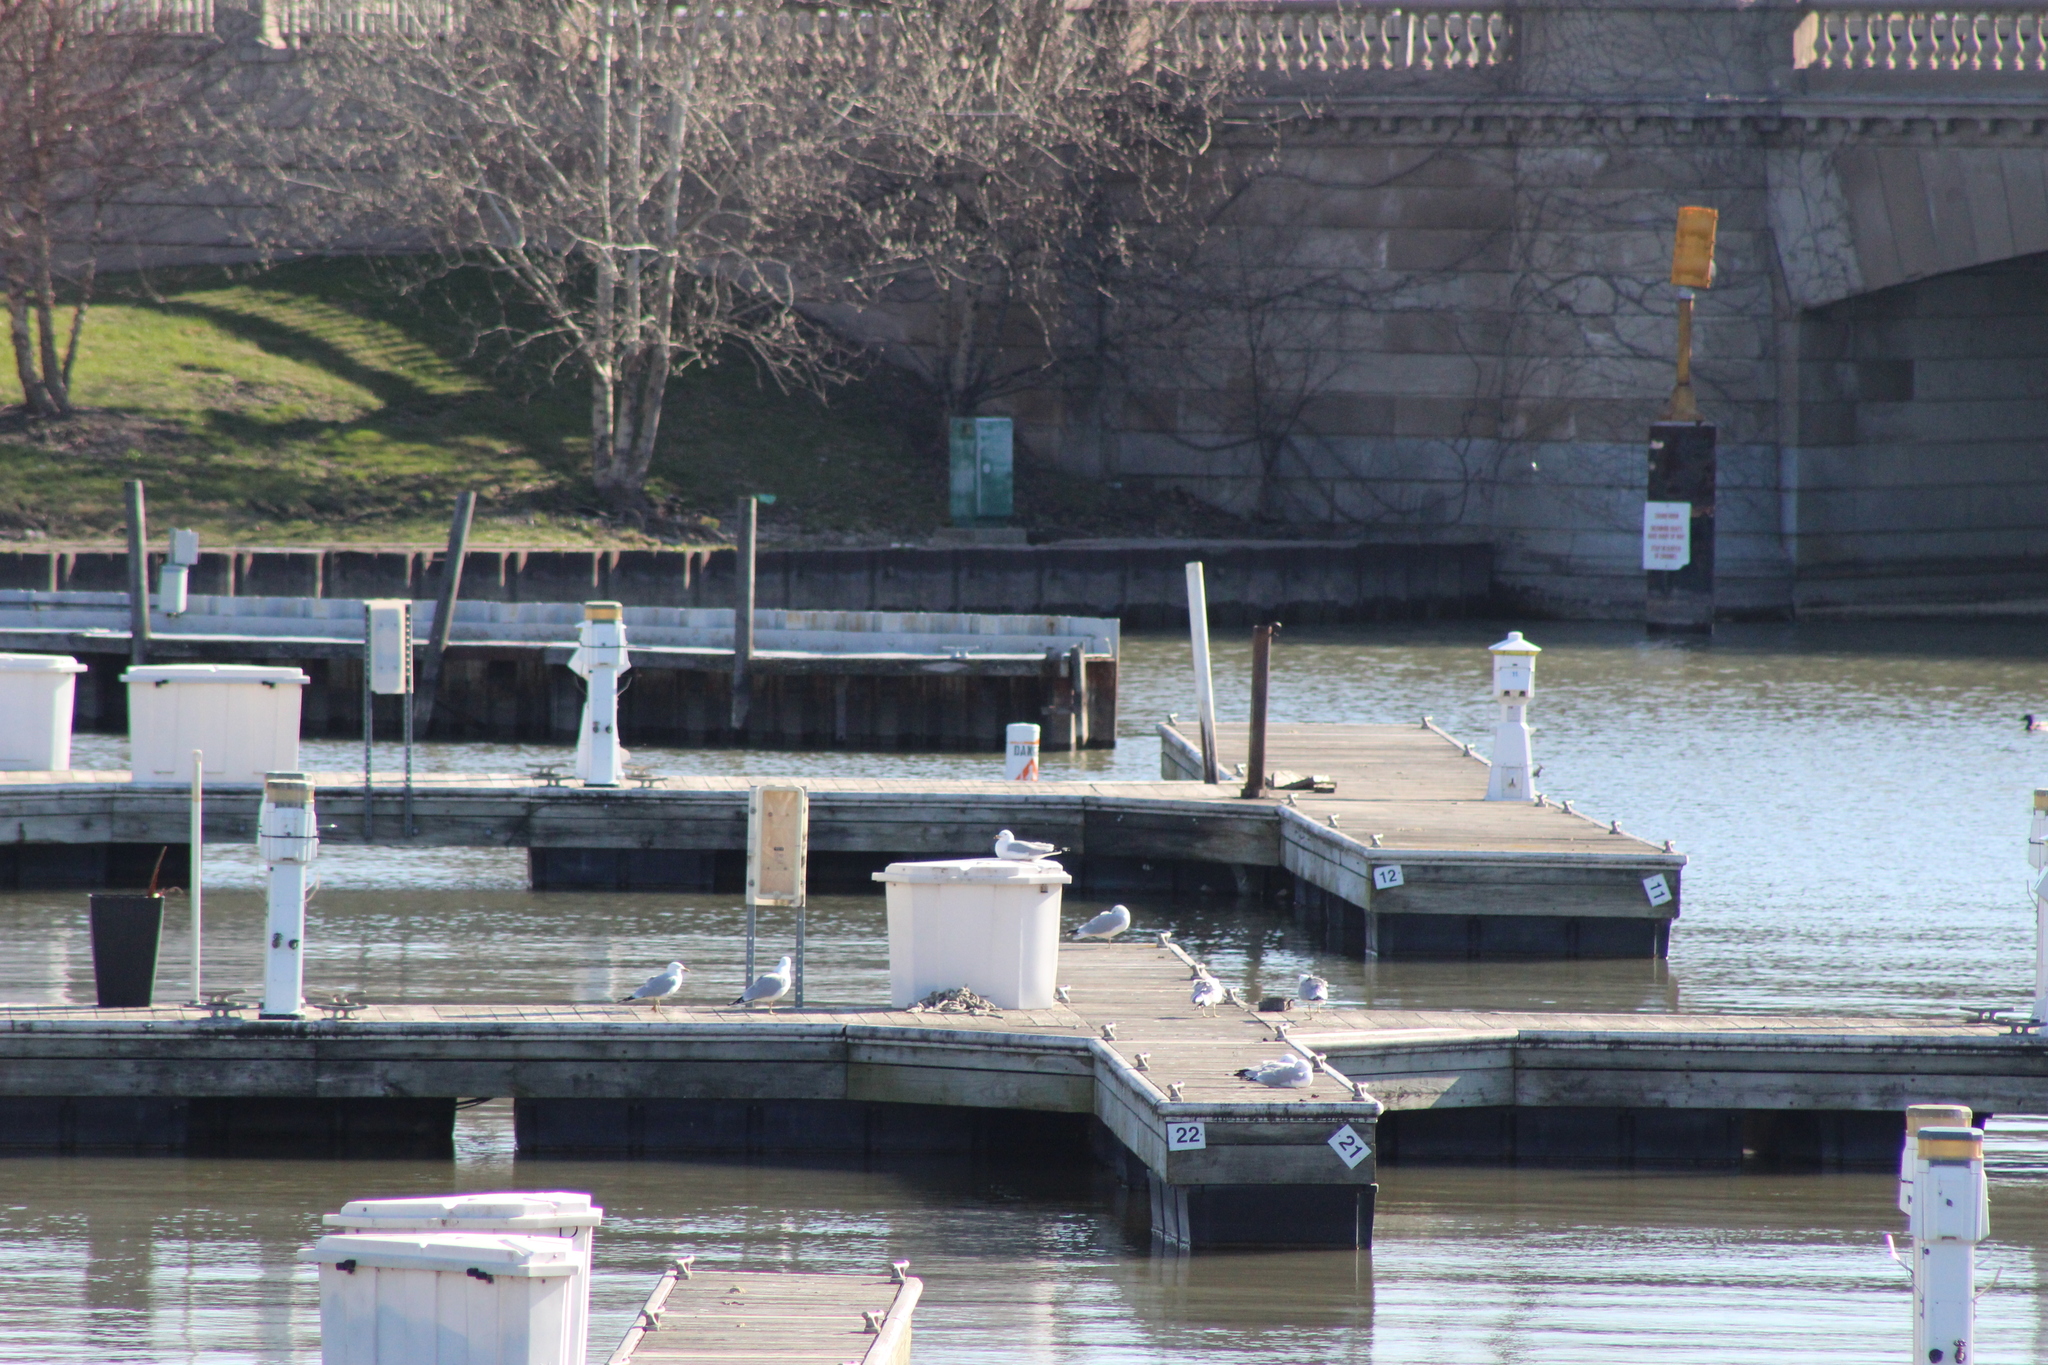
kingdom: Animalia
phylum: Chordata
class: Aves
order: Charadriiformes
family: Laridae
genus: Larus
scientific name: Larus delawarensis
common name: Ring-billed gull
